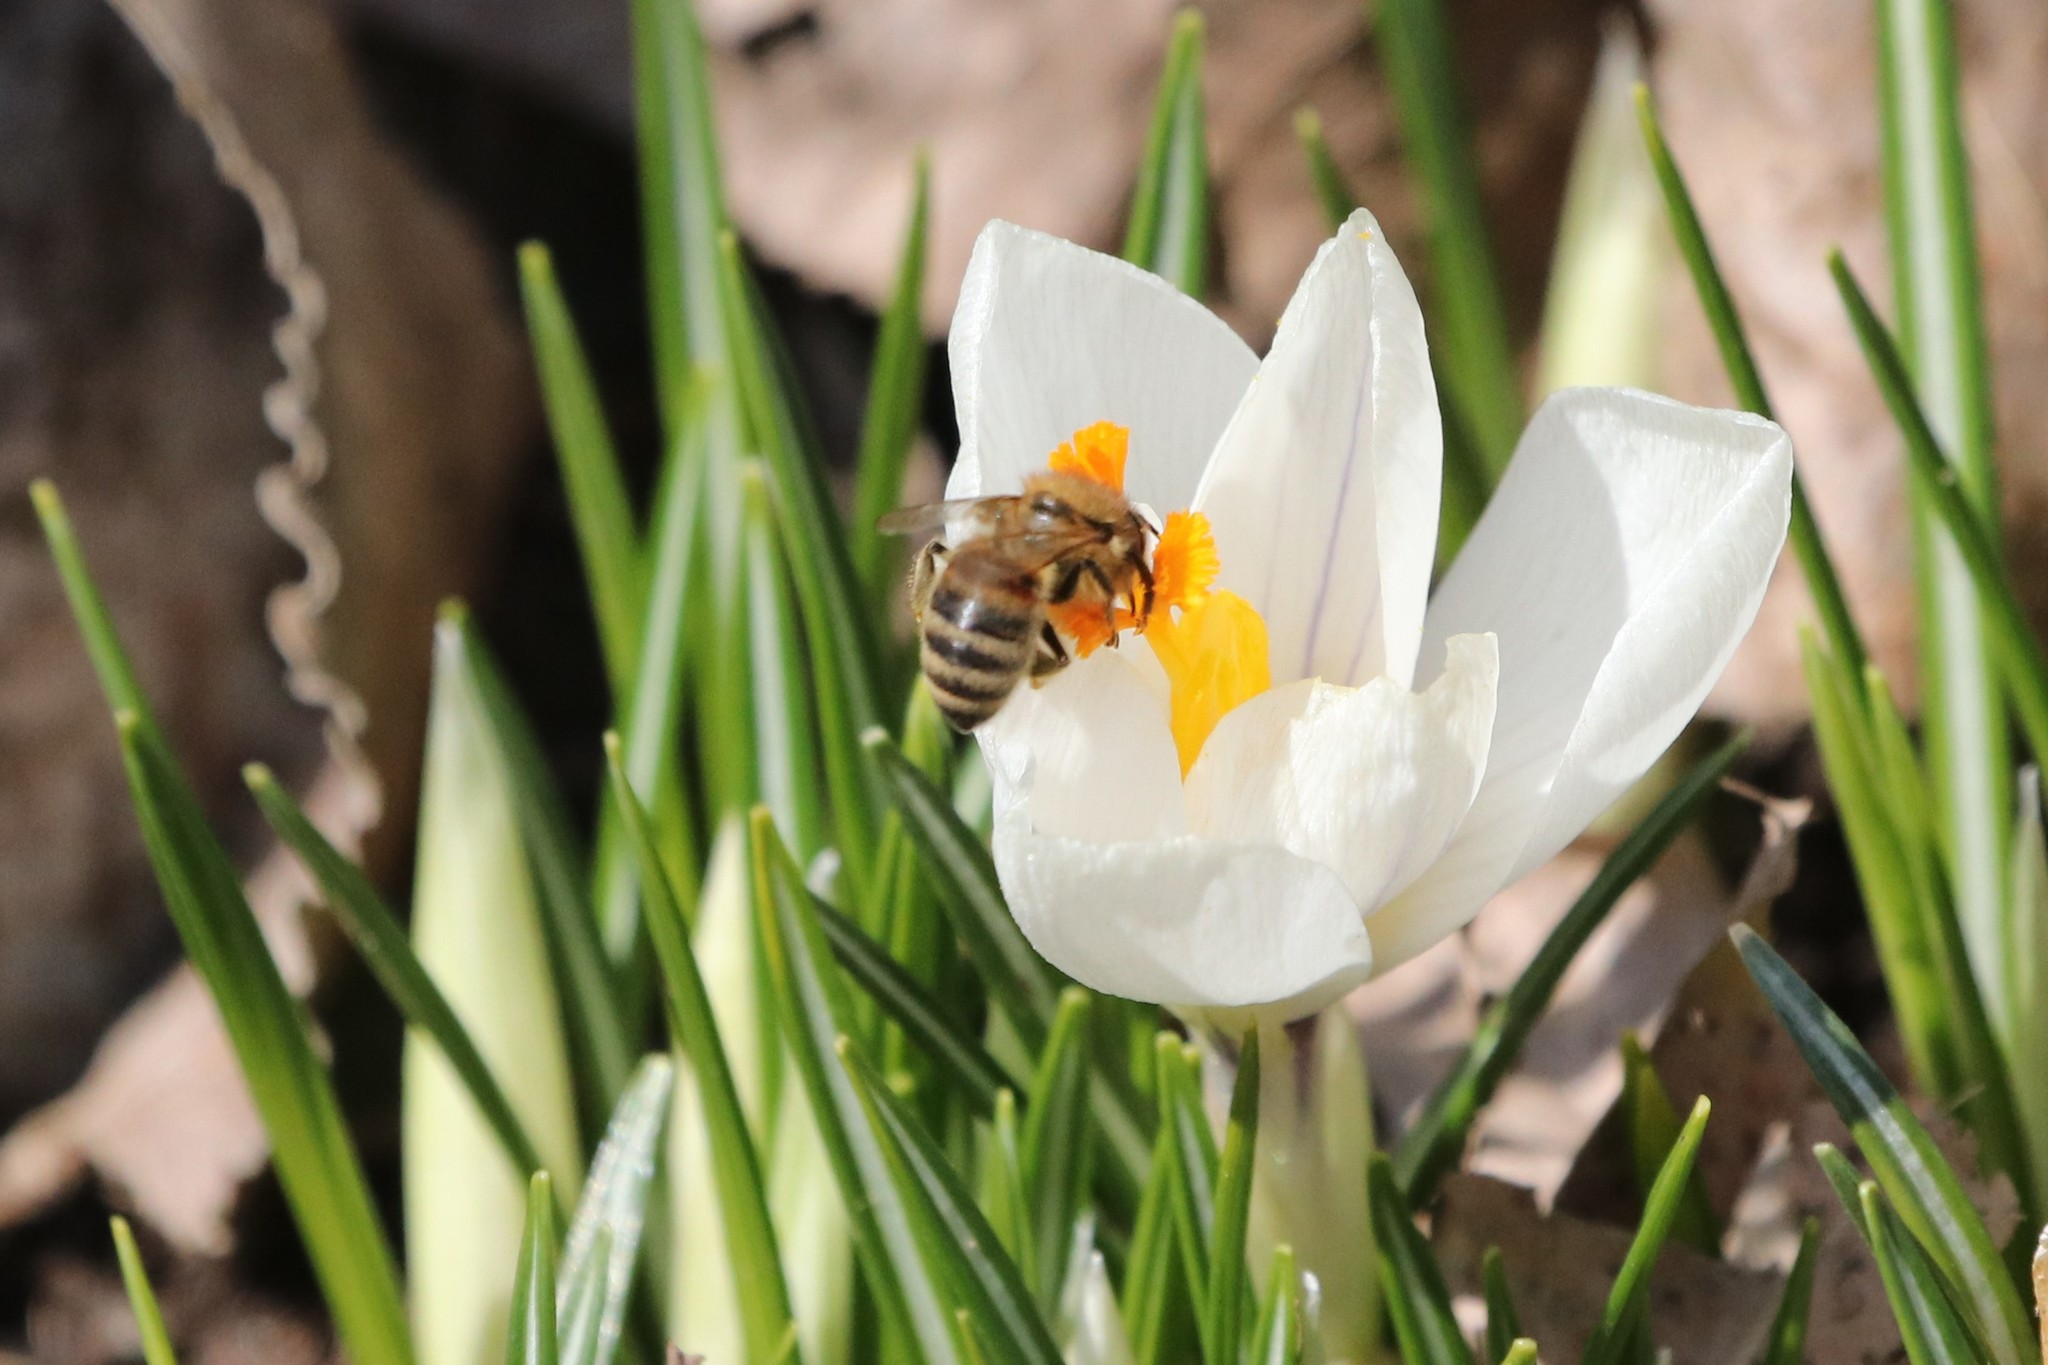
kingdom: Animalia
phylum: Arthropoda
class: Insecta
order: Hymenoptera
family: Apidae
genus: Apis
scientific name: Apis mellifera
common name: Honey bee
